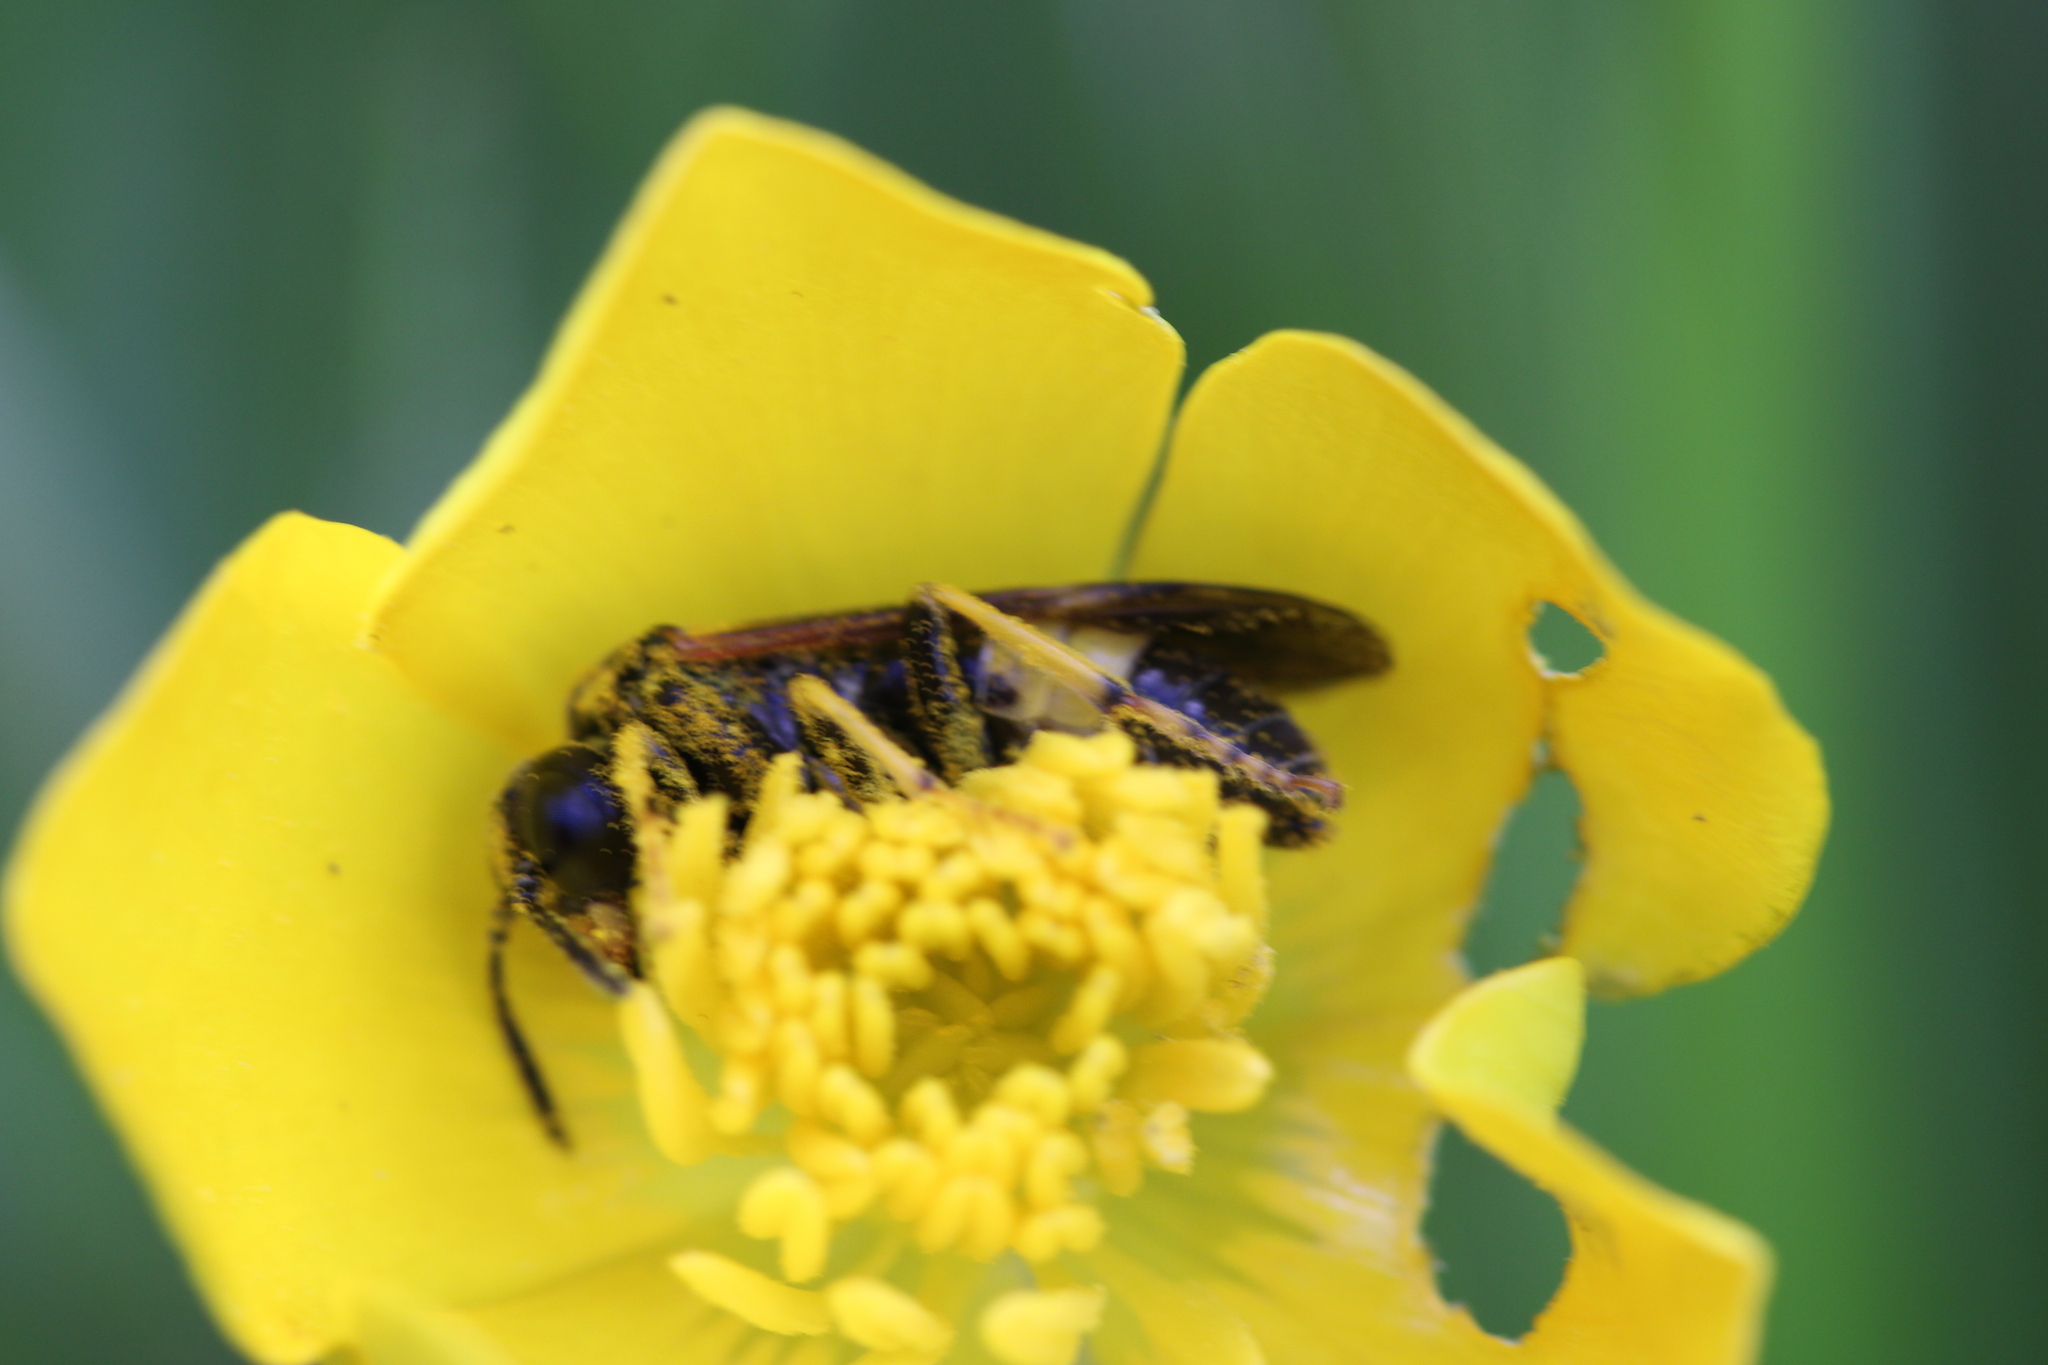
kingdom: Animalia
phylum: Arthropoda
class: Insecta
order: Hymenoptera
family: Tenthredinidae
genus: Paratenthredo
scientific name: Paratenthredo frauenfeldii
